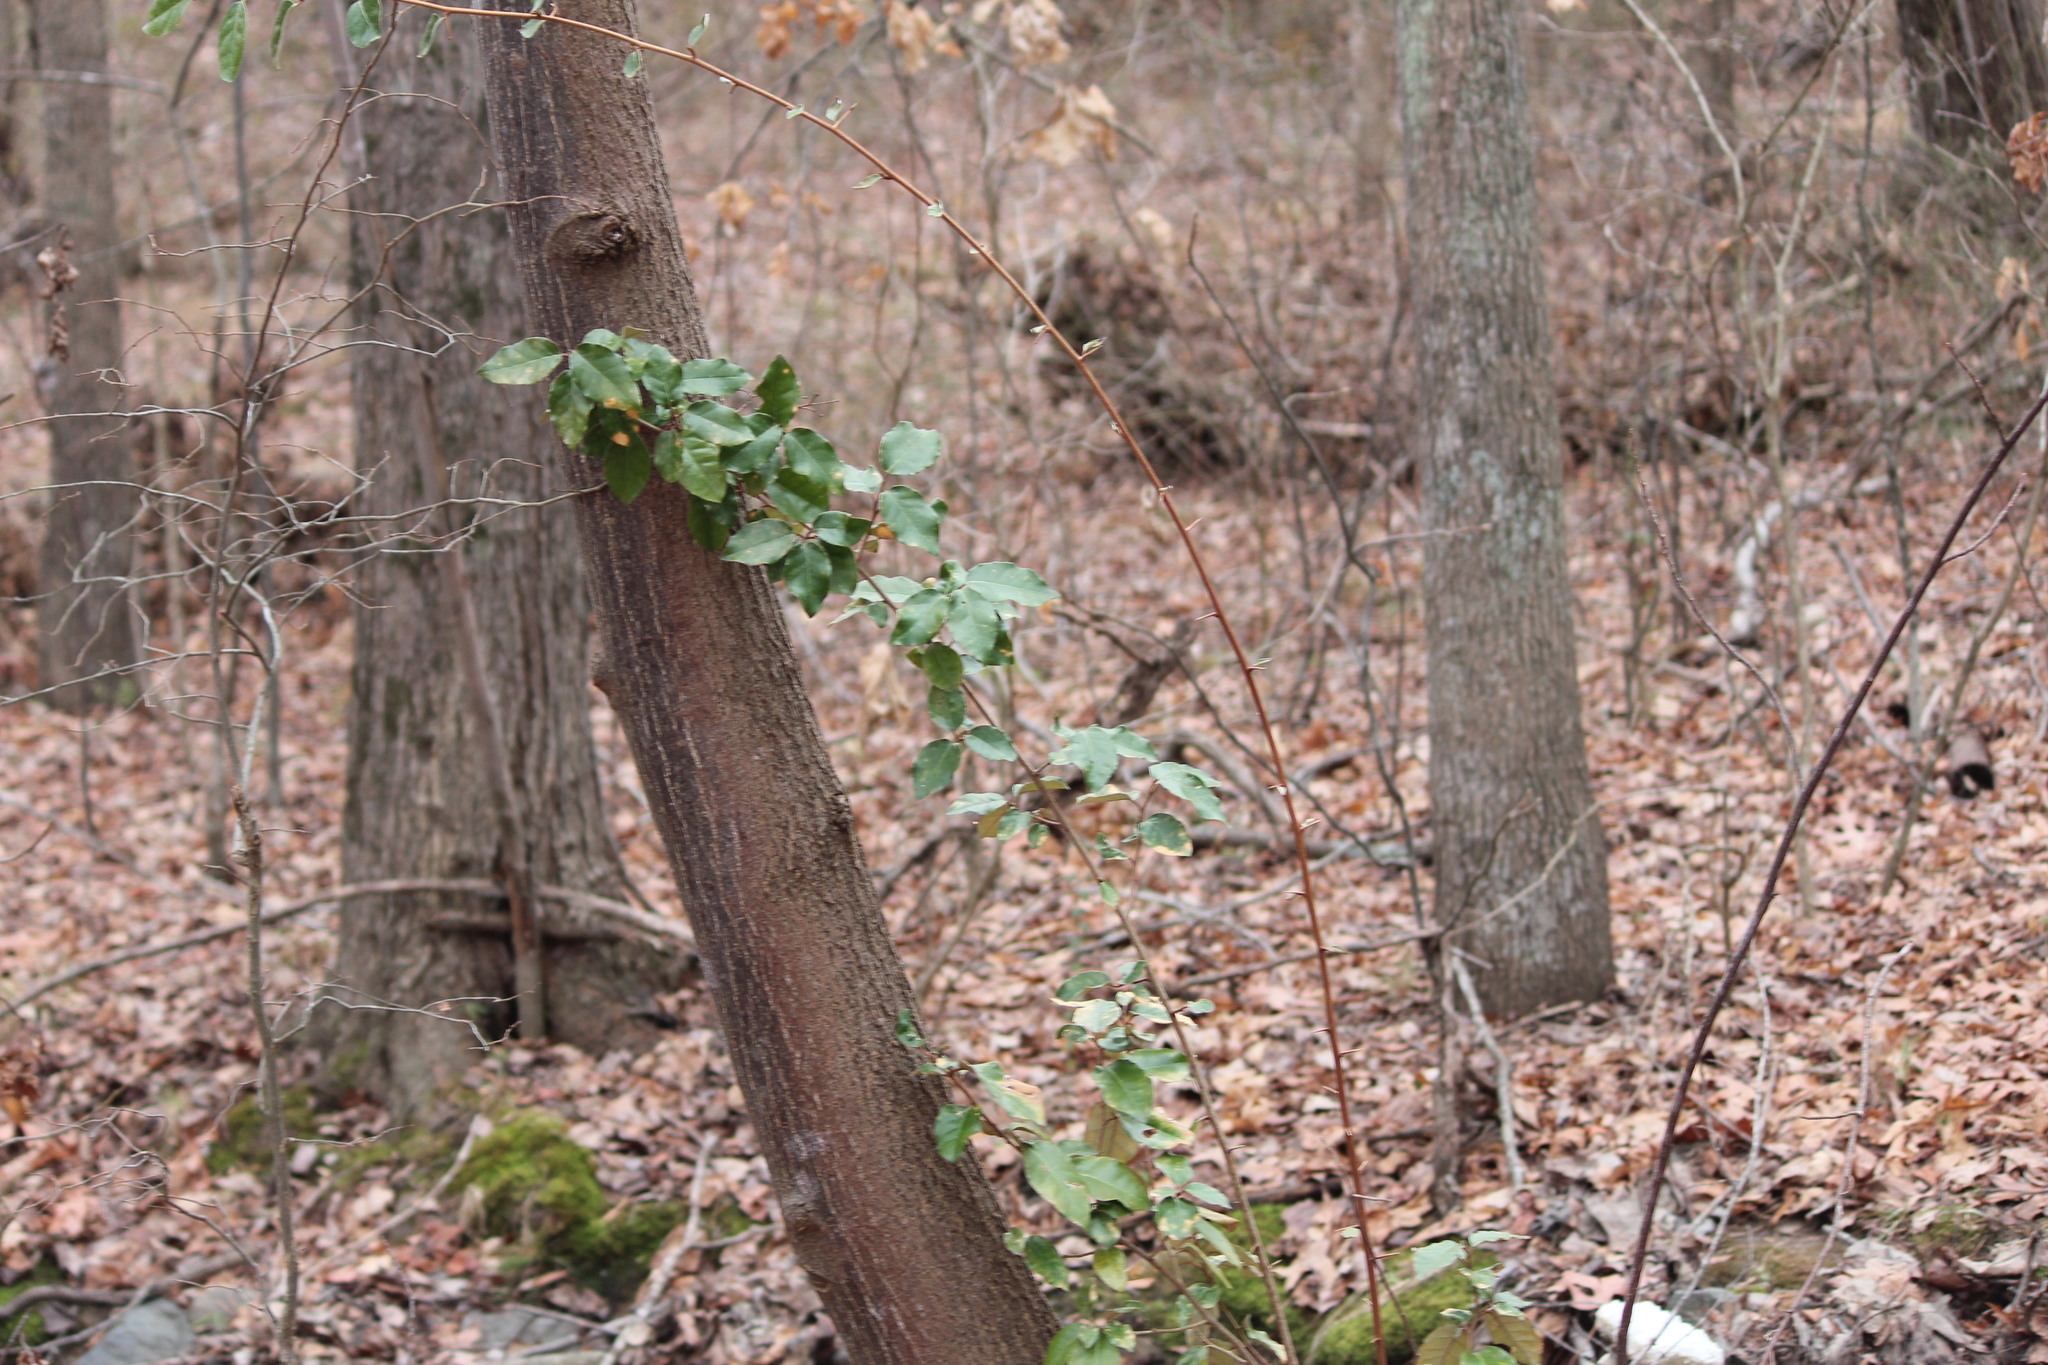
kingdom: Plantae
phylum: Tracheophyta
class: Magnoliopsida
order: Rosales
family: Elaeagnaceae
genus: Elaeagnus
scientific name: Elaeagnus umbellata
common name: Autumn olive
